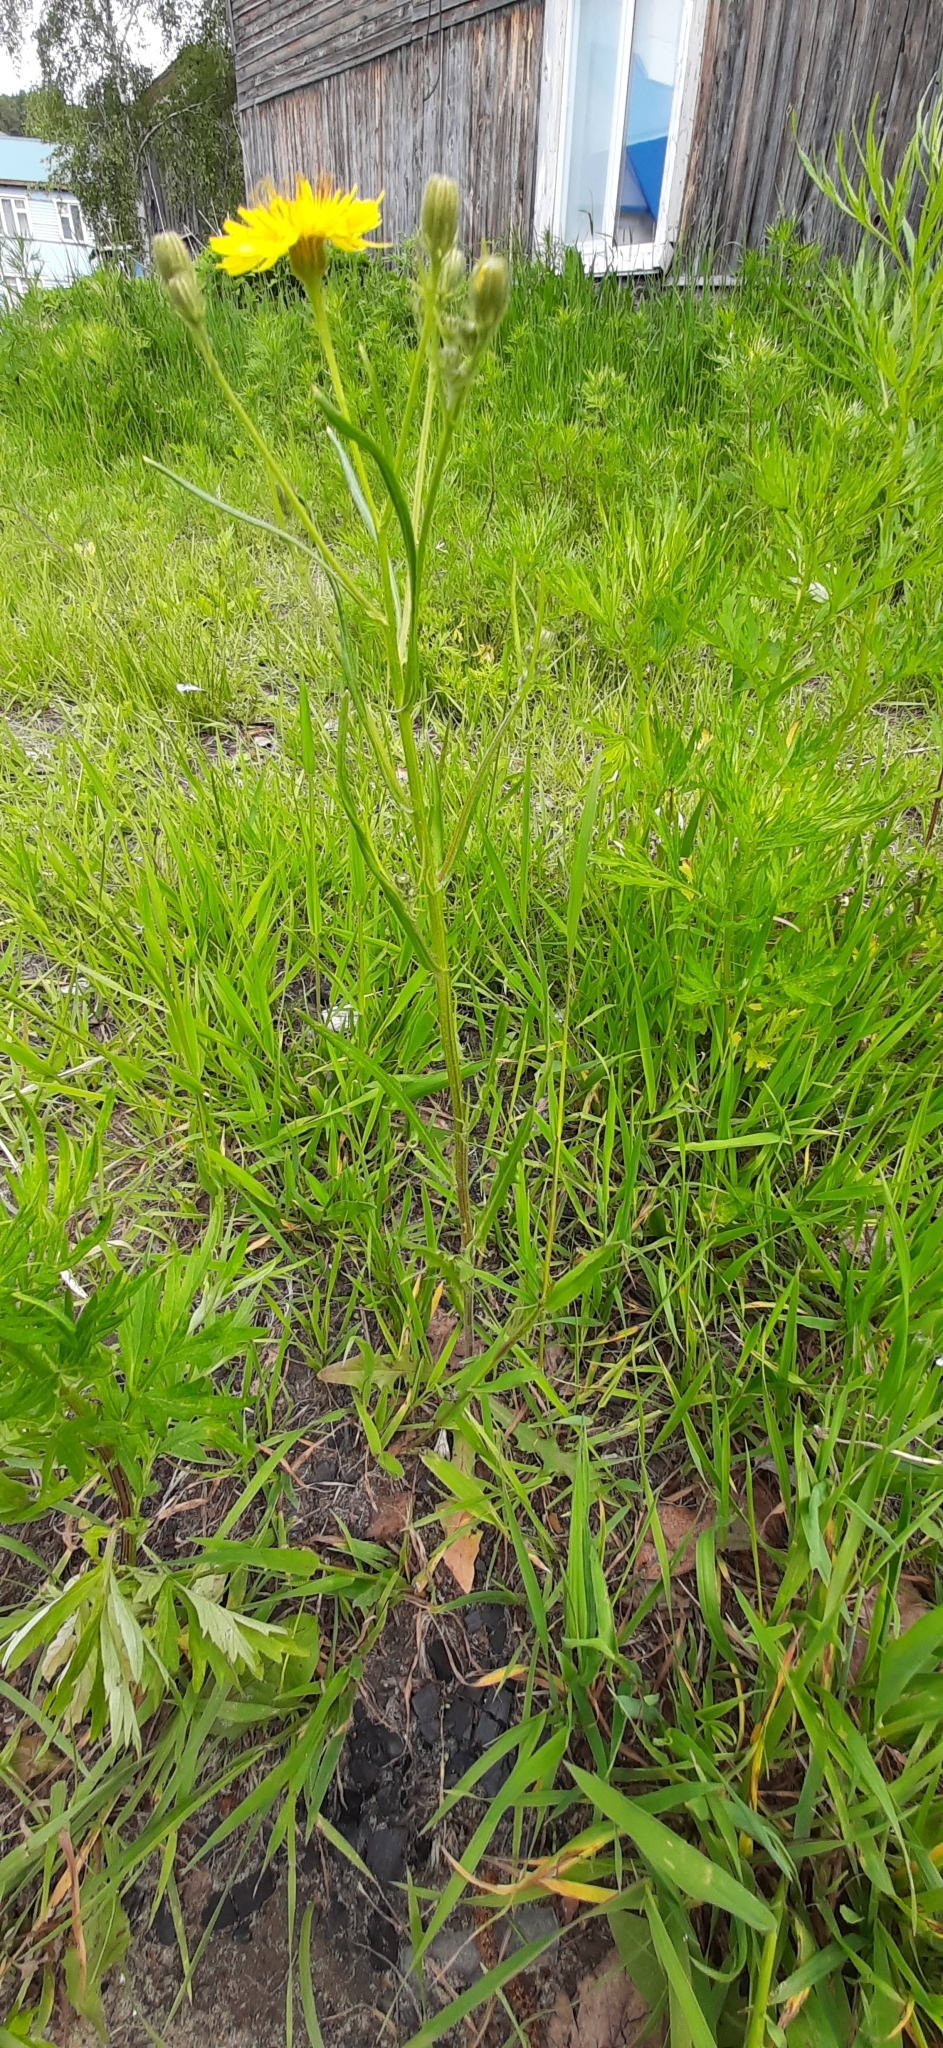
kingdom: Plantae
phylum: Tracheophyta
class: Magnoliopsida
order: Asterales
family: Asteraceae
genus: Crepis
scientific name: Crepis tectorum
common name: Narrow-leaved hawk's-beard
